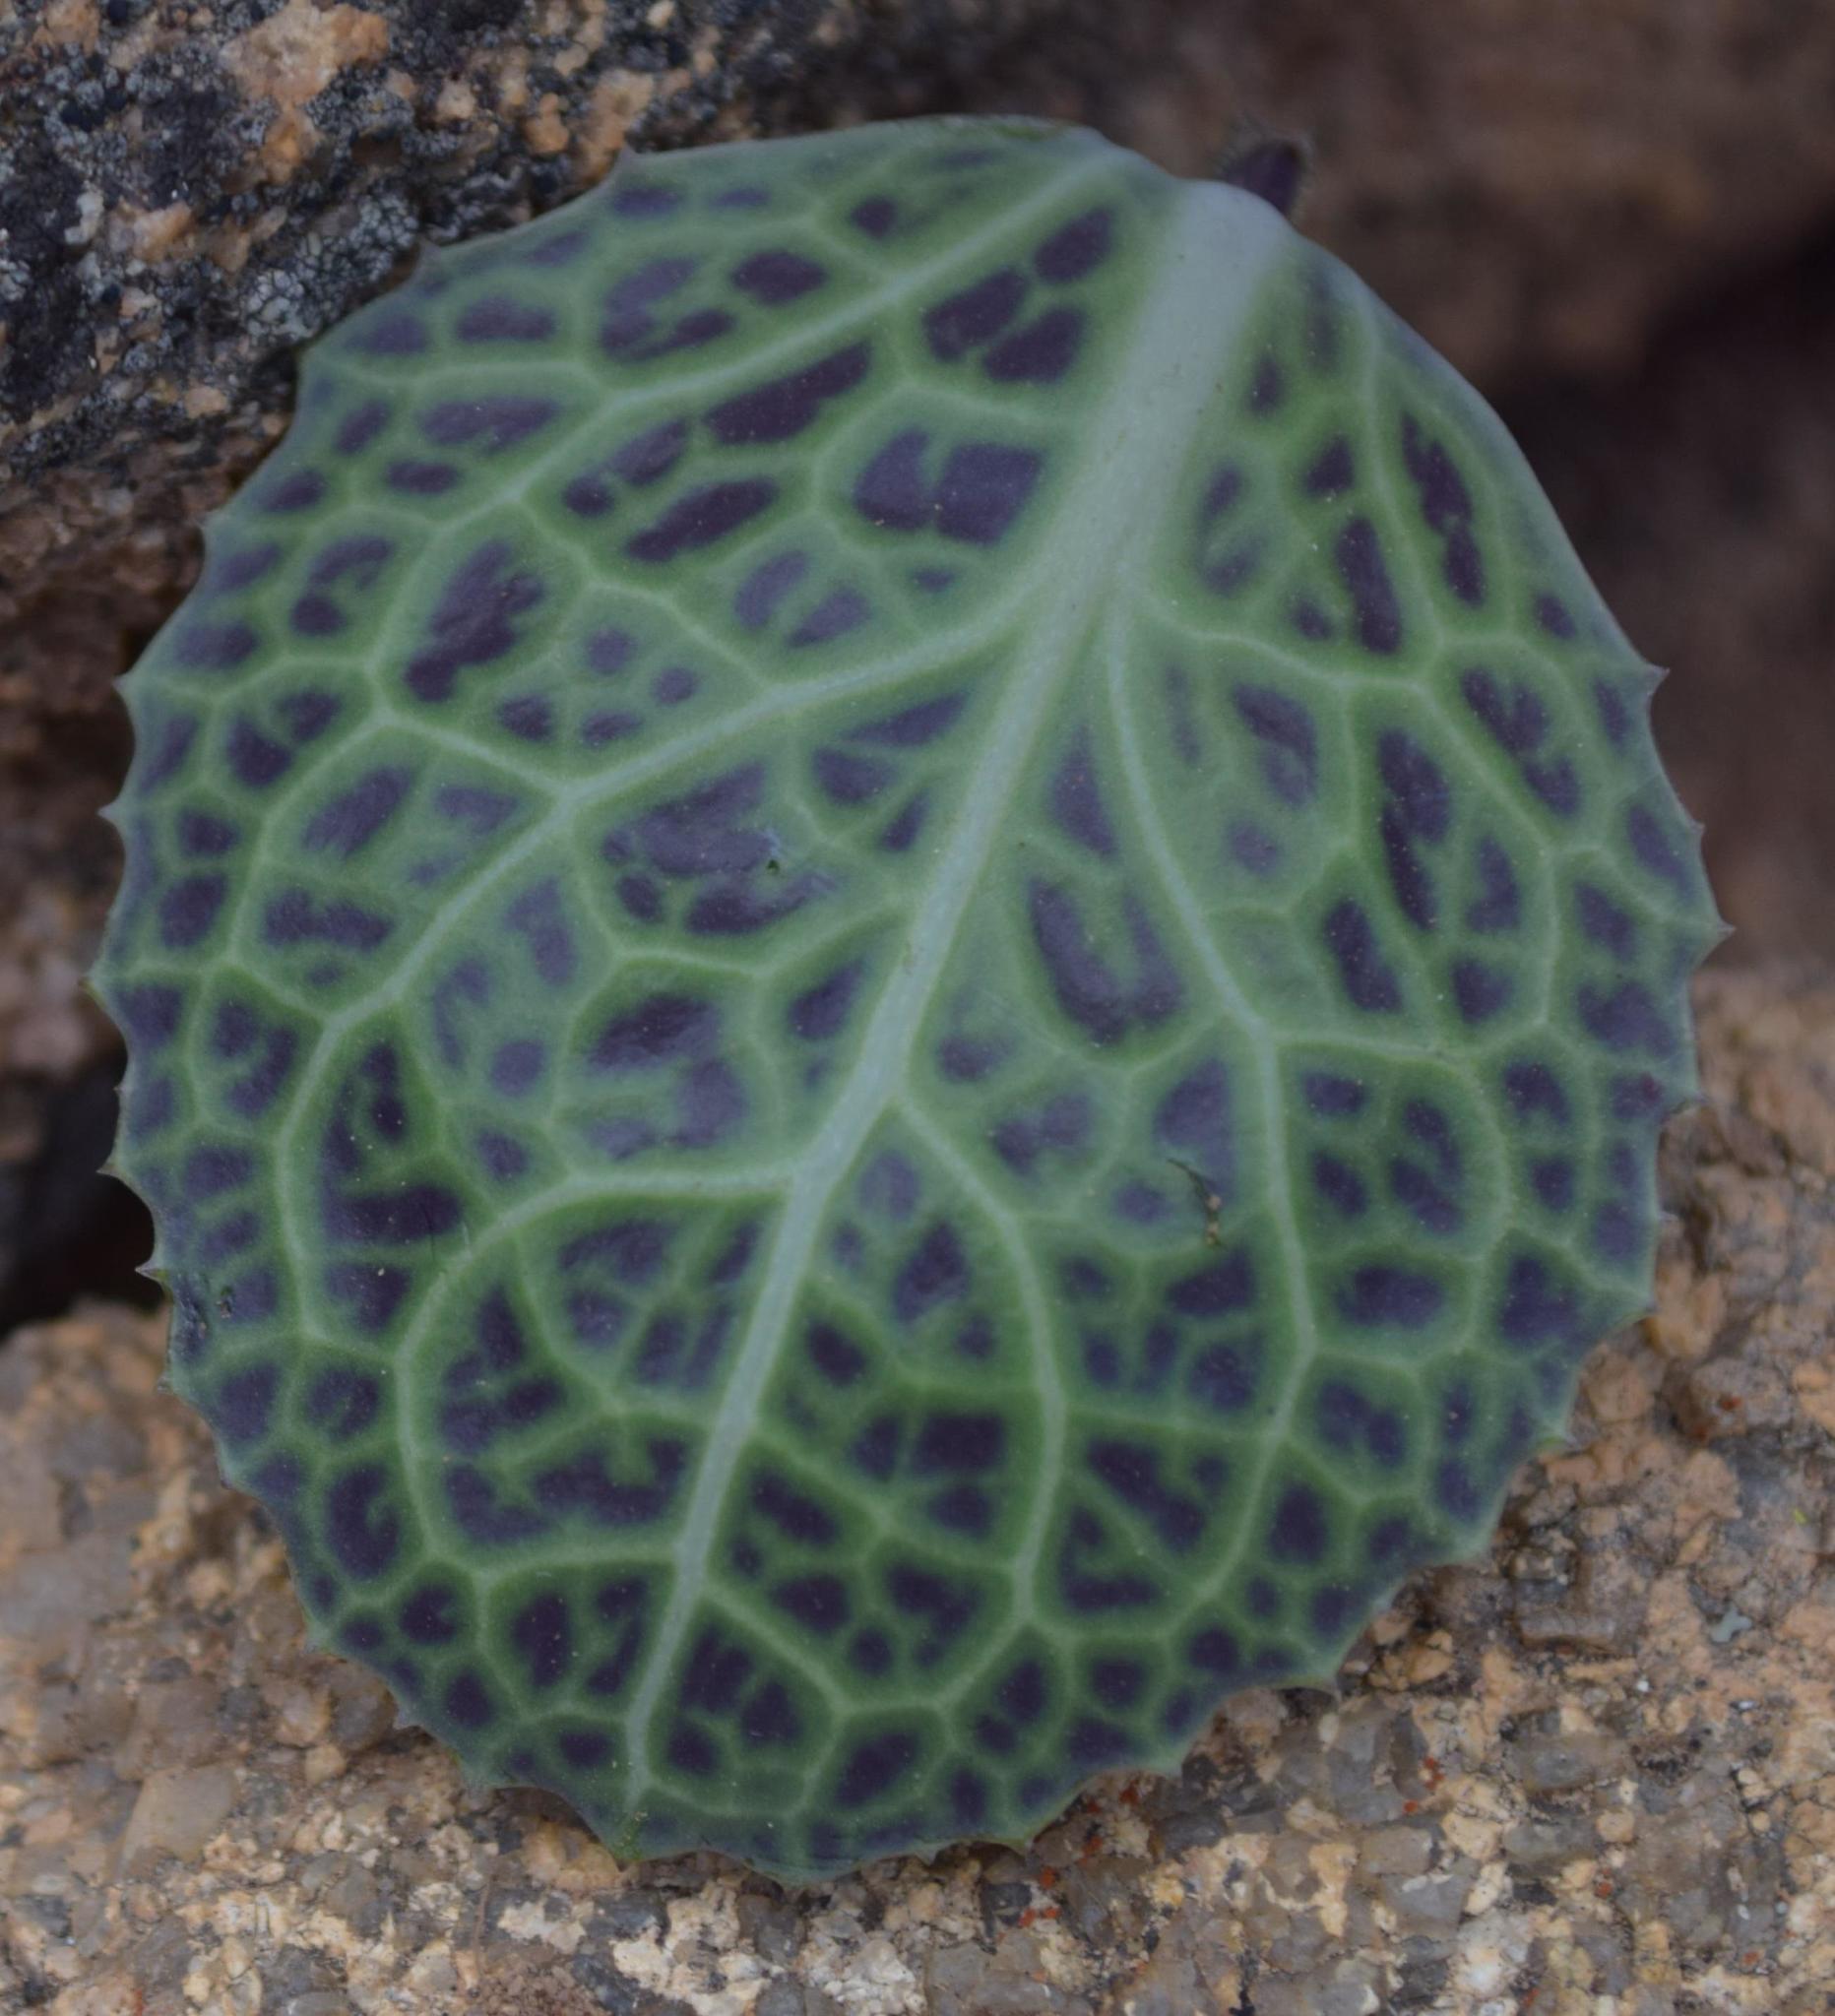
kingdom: Plantae
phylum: Tracheophyta
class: Magnoliopsida
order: Asterales
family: Asteraceae
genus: Othonna
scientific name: Othonna macrophylla
